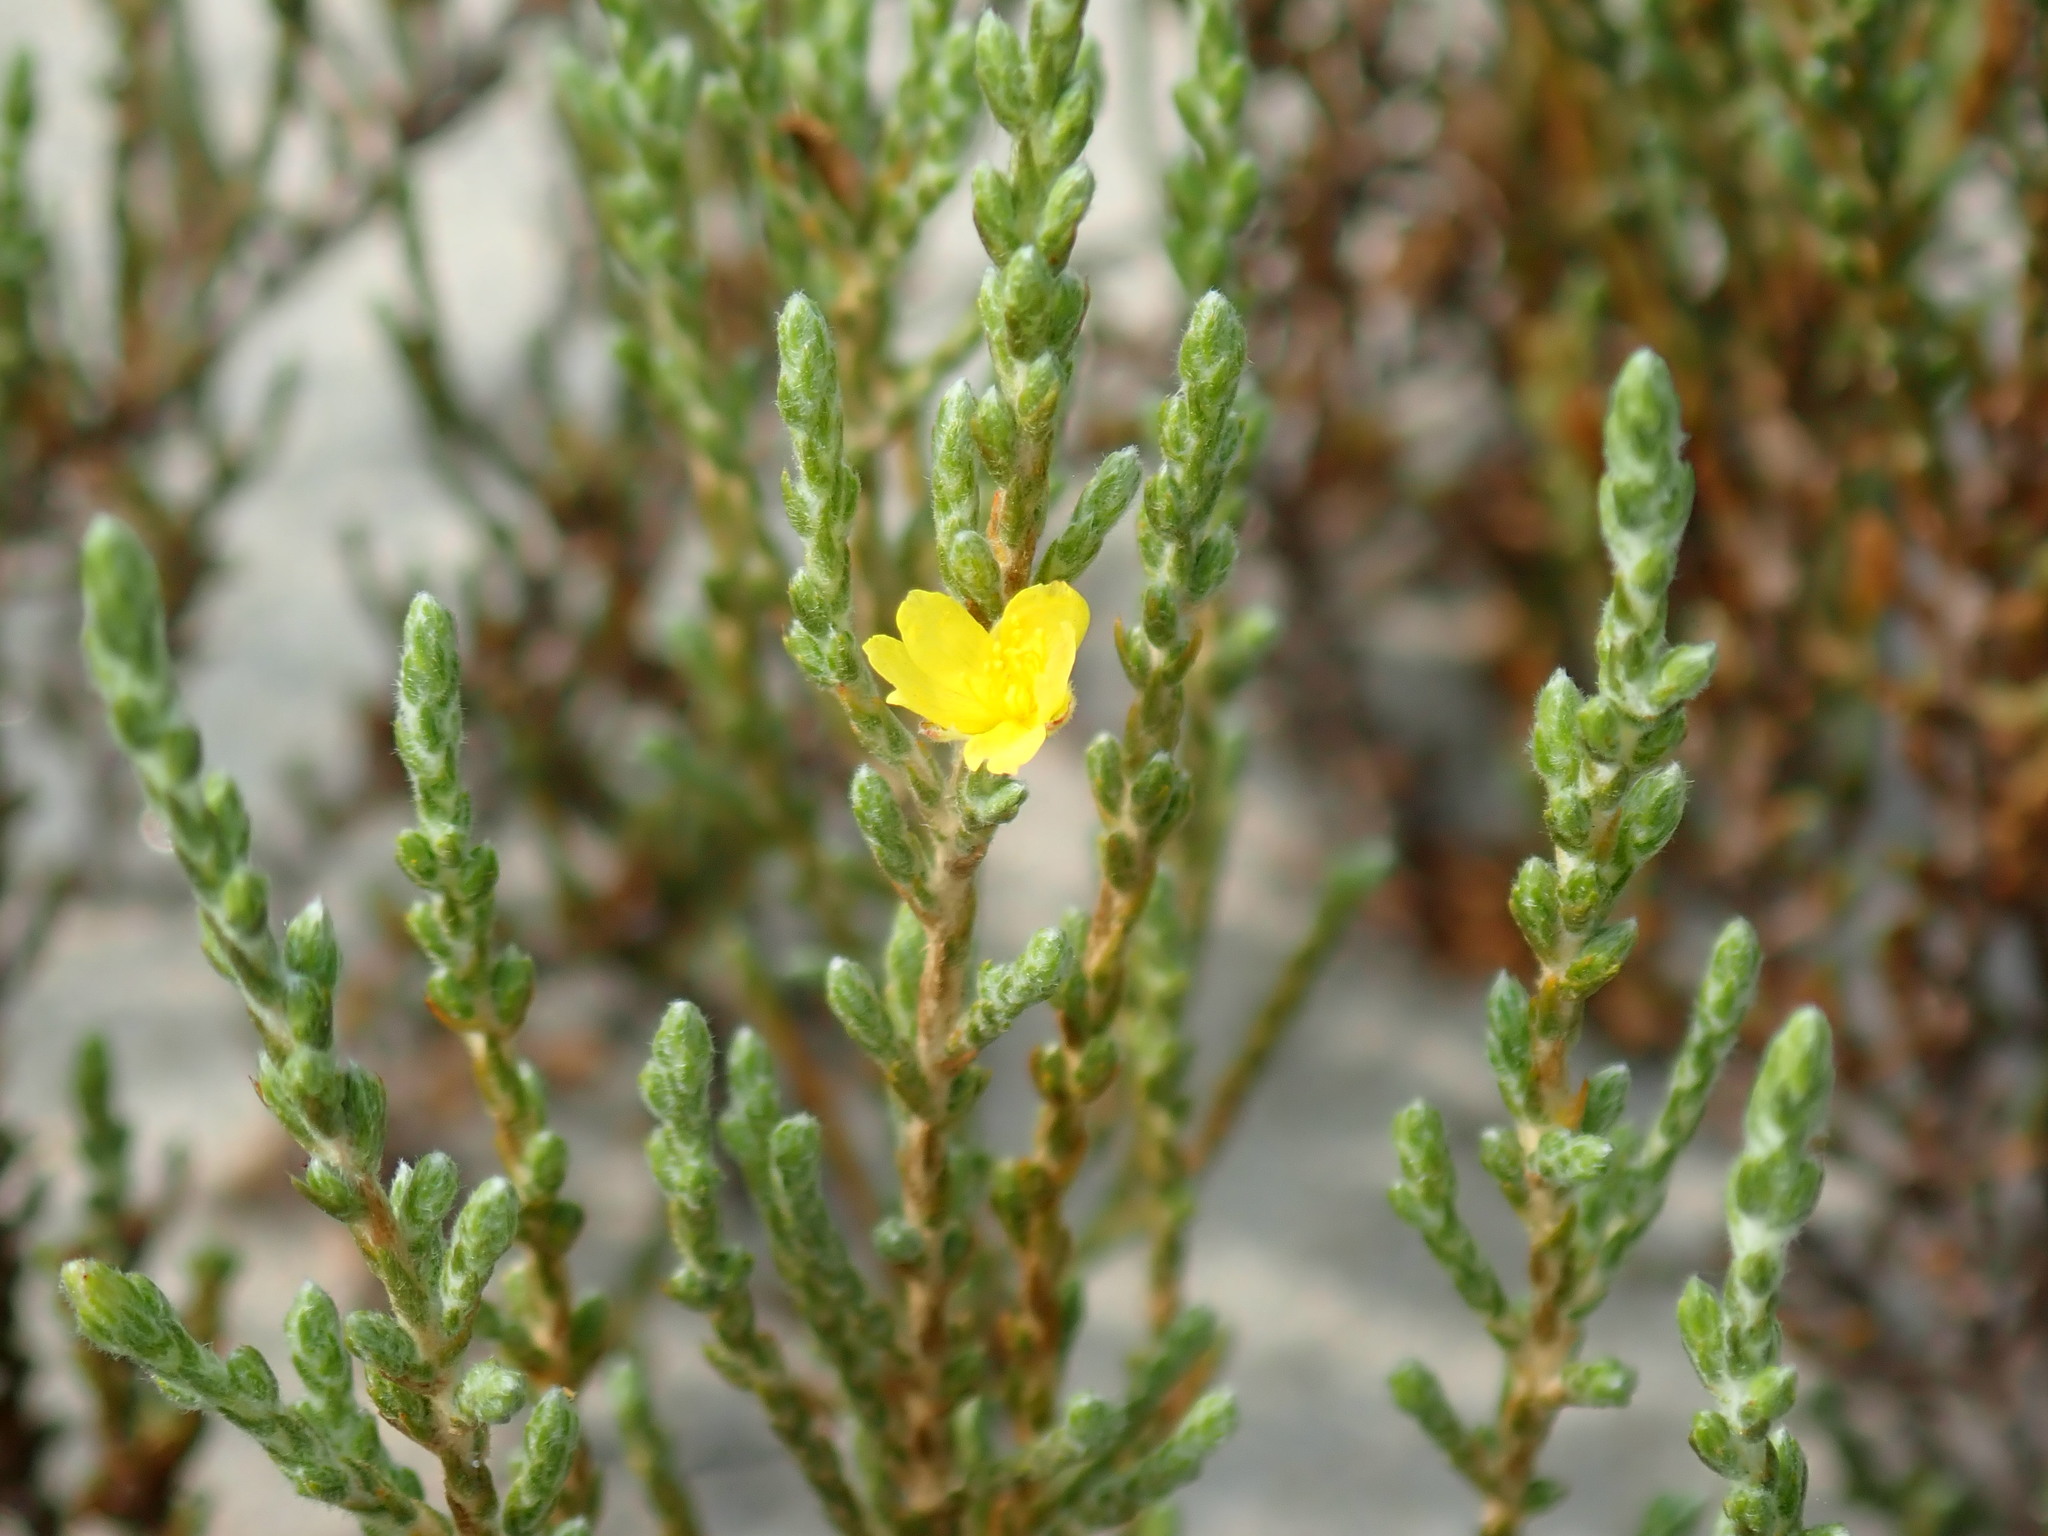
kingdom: Plantae
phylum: Tracheophyta
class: Magnoliopsida
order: Malvales
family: Cistaceae
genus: Hudsonia
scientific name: Hudsonia tomentosa
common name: Beach-heath
